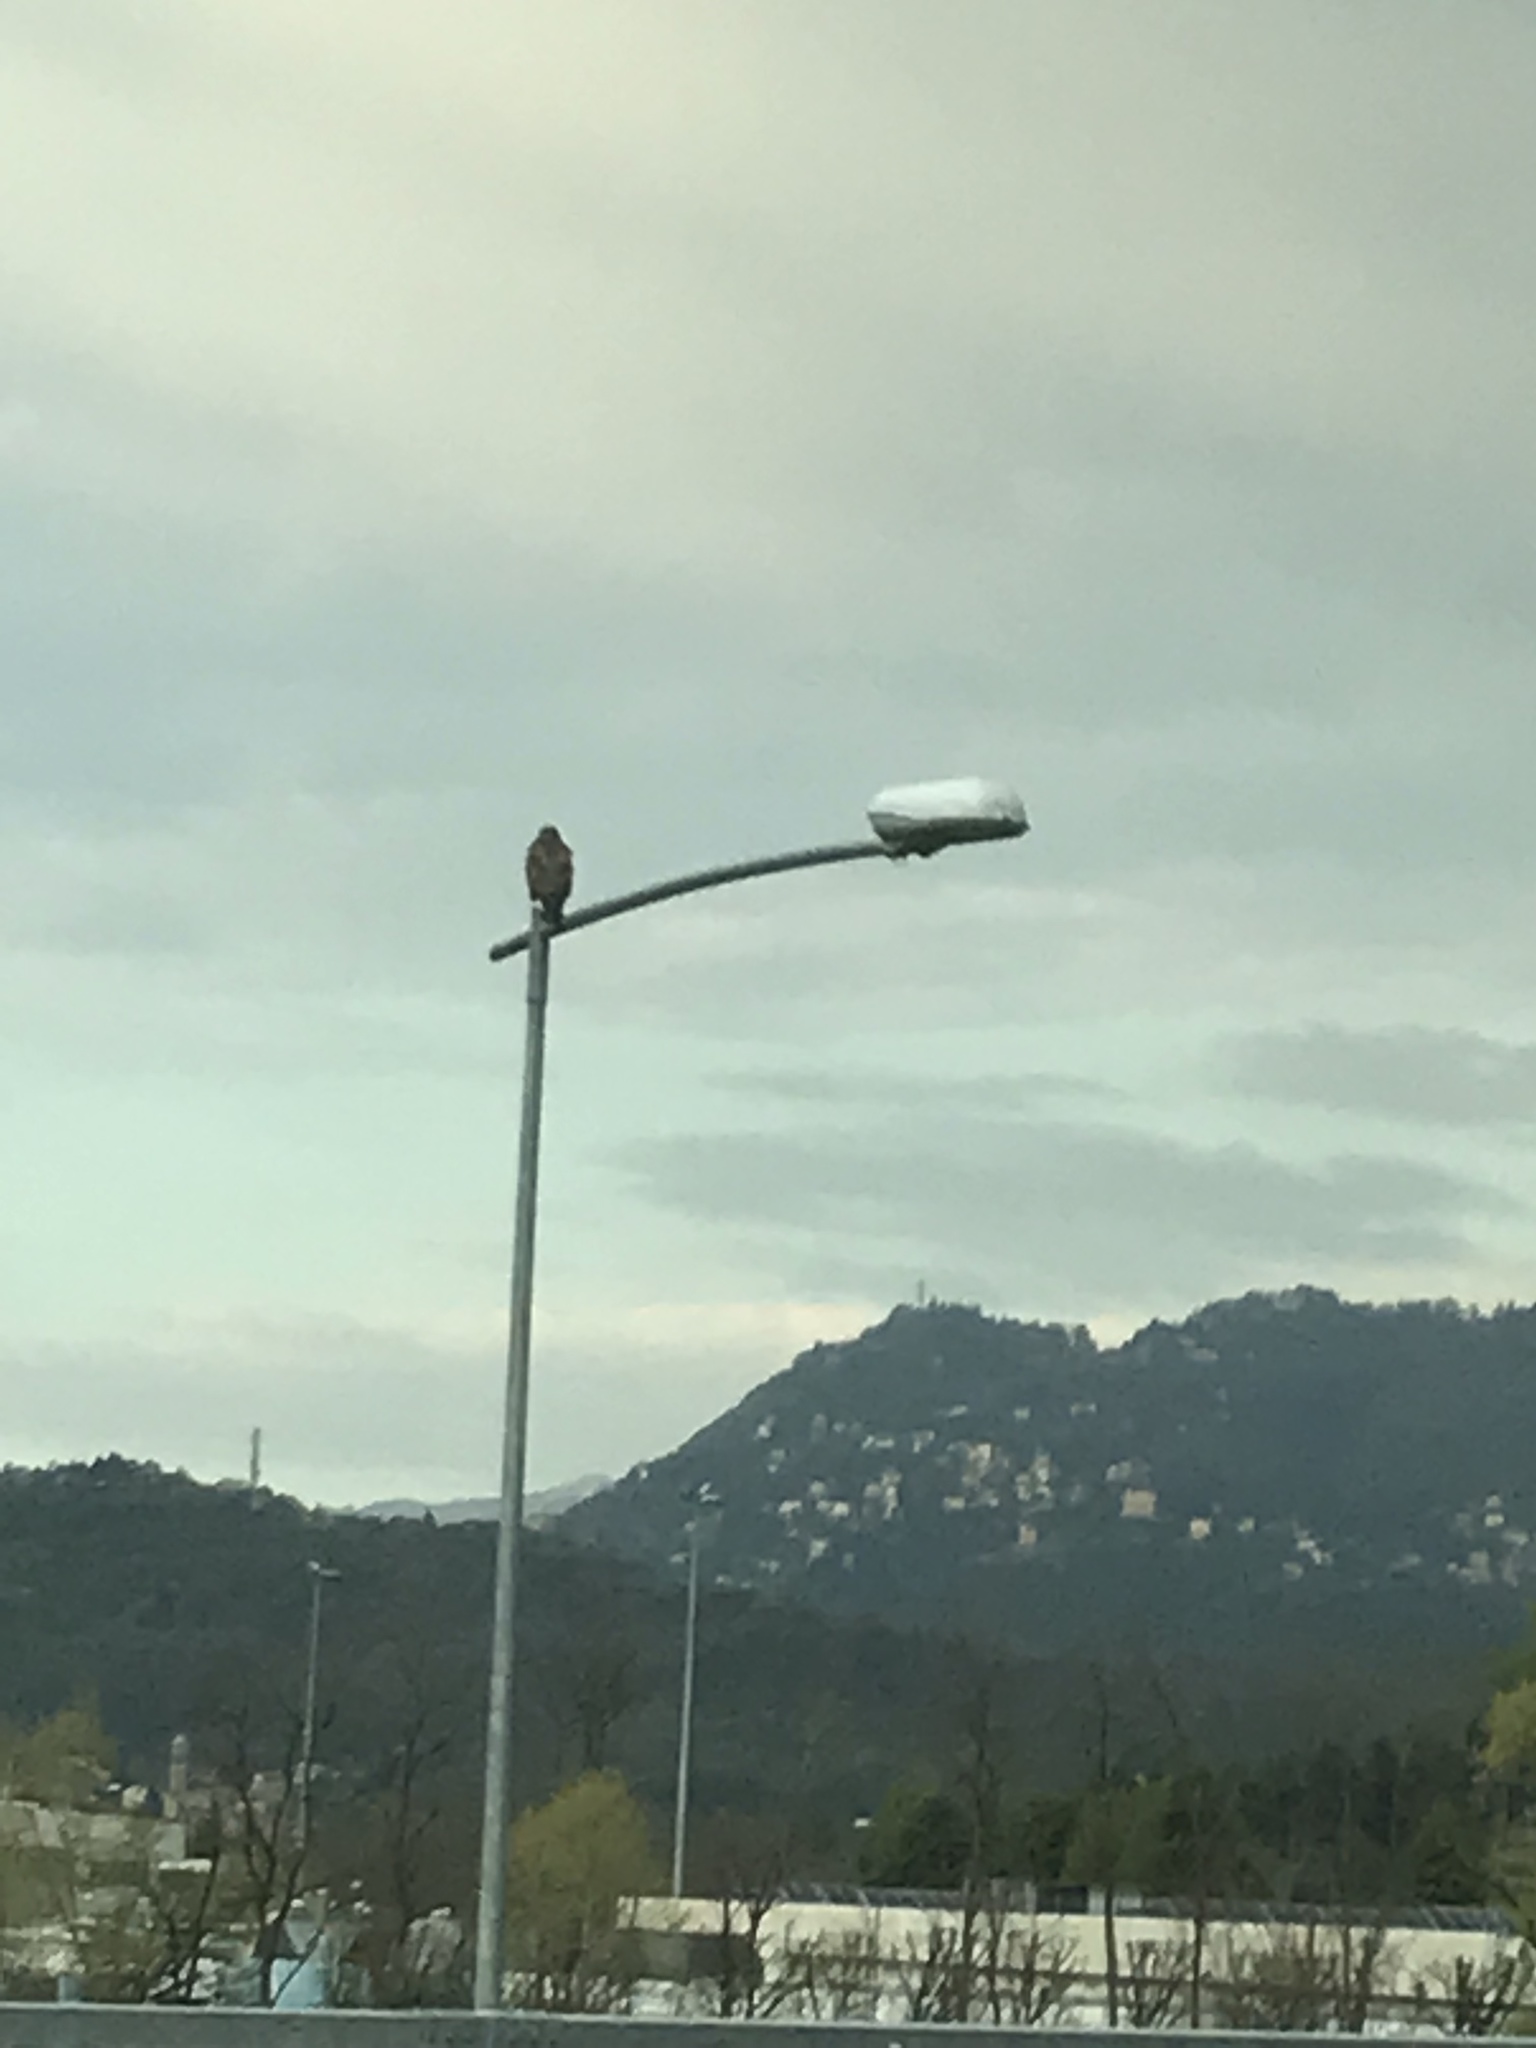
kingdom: Animalia
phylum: Chordata
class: Aves
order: Accipitriformes
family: Accipitridae
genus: Buteo
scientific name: Buteo buteo
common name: Common buzzard
